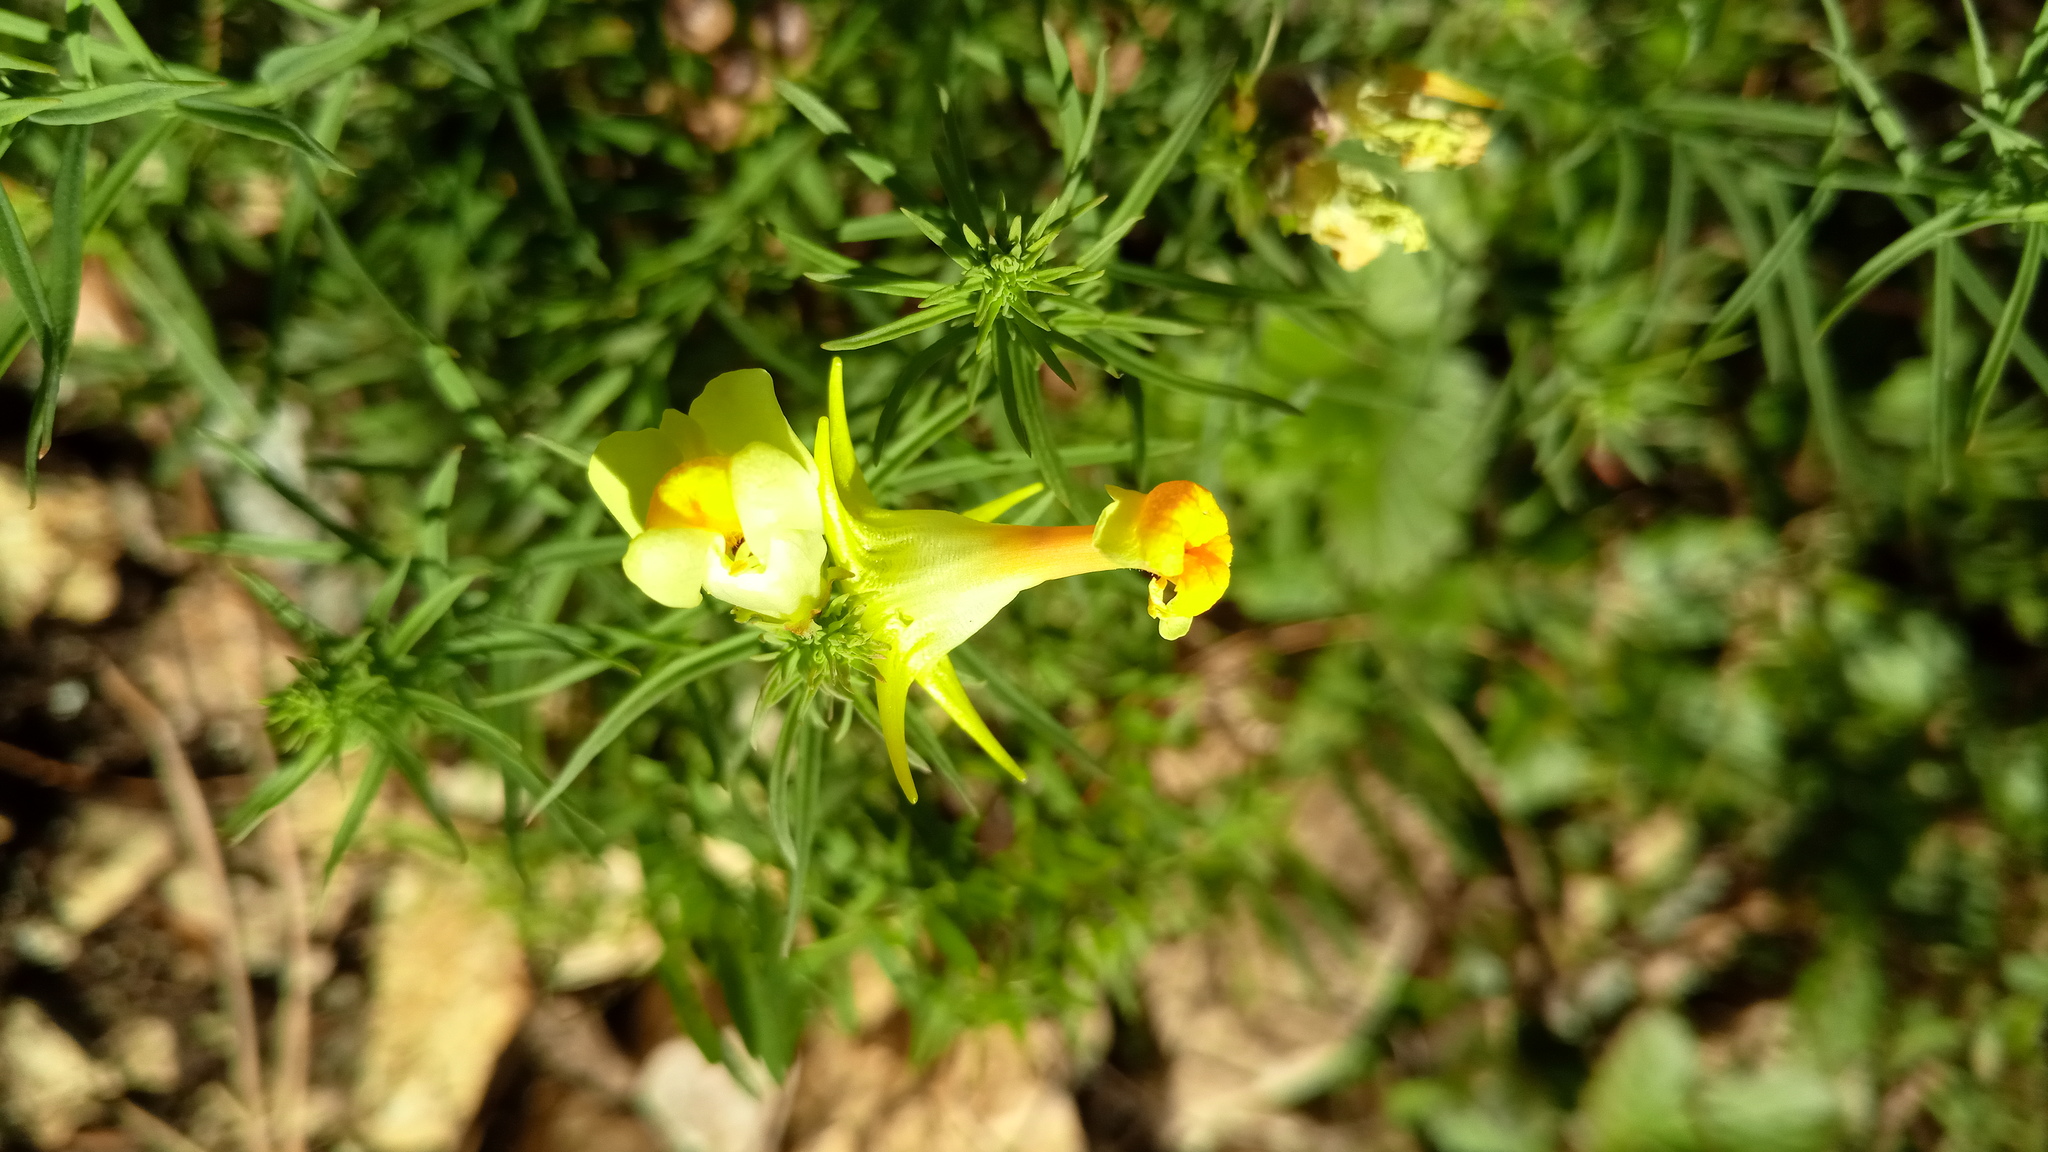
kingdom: Plantae
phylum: Tracheophyta
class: Magnoliopsida
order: Lamiales
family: Plantaginaceae
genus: Linaria
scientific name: Linaria vulgaris
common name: Butter and eggs
